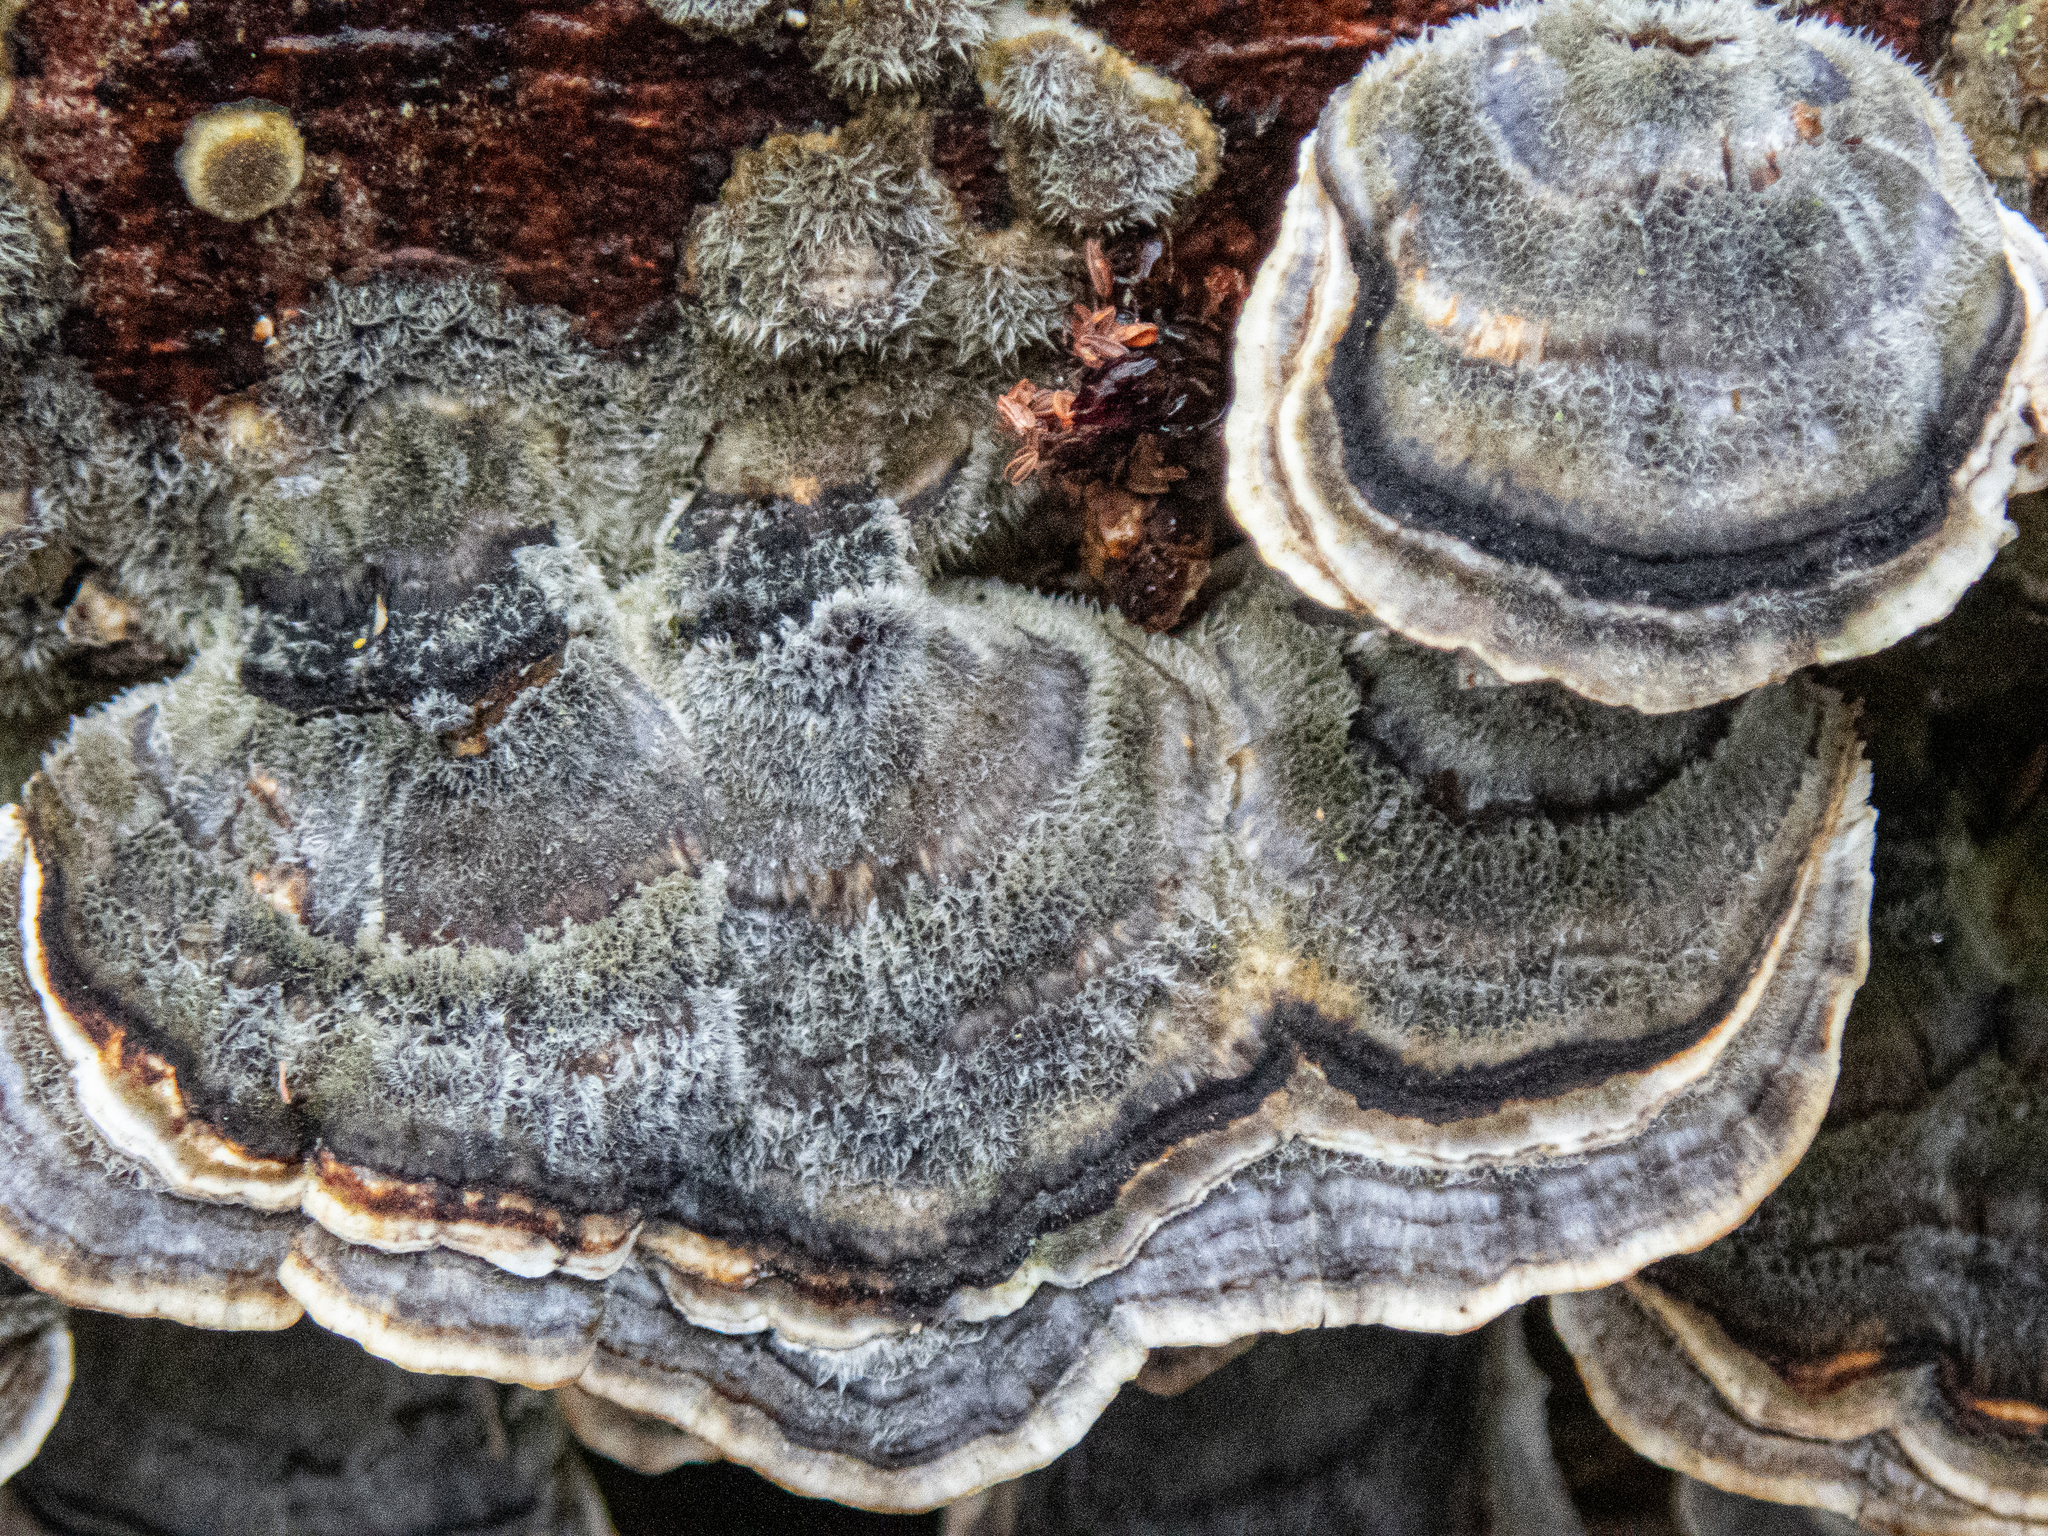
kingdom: Fungi
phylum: Basidiomycota
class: Agaricomycetes
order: Polyporales
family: Polyporaceae
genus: Trametes
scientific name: Trametes versicolor
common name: Turkeytail
